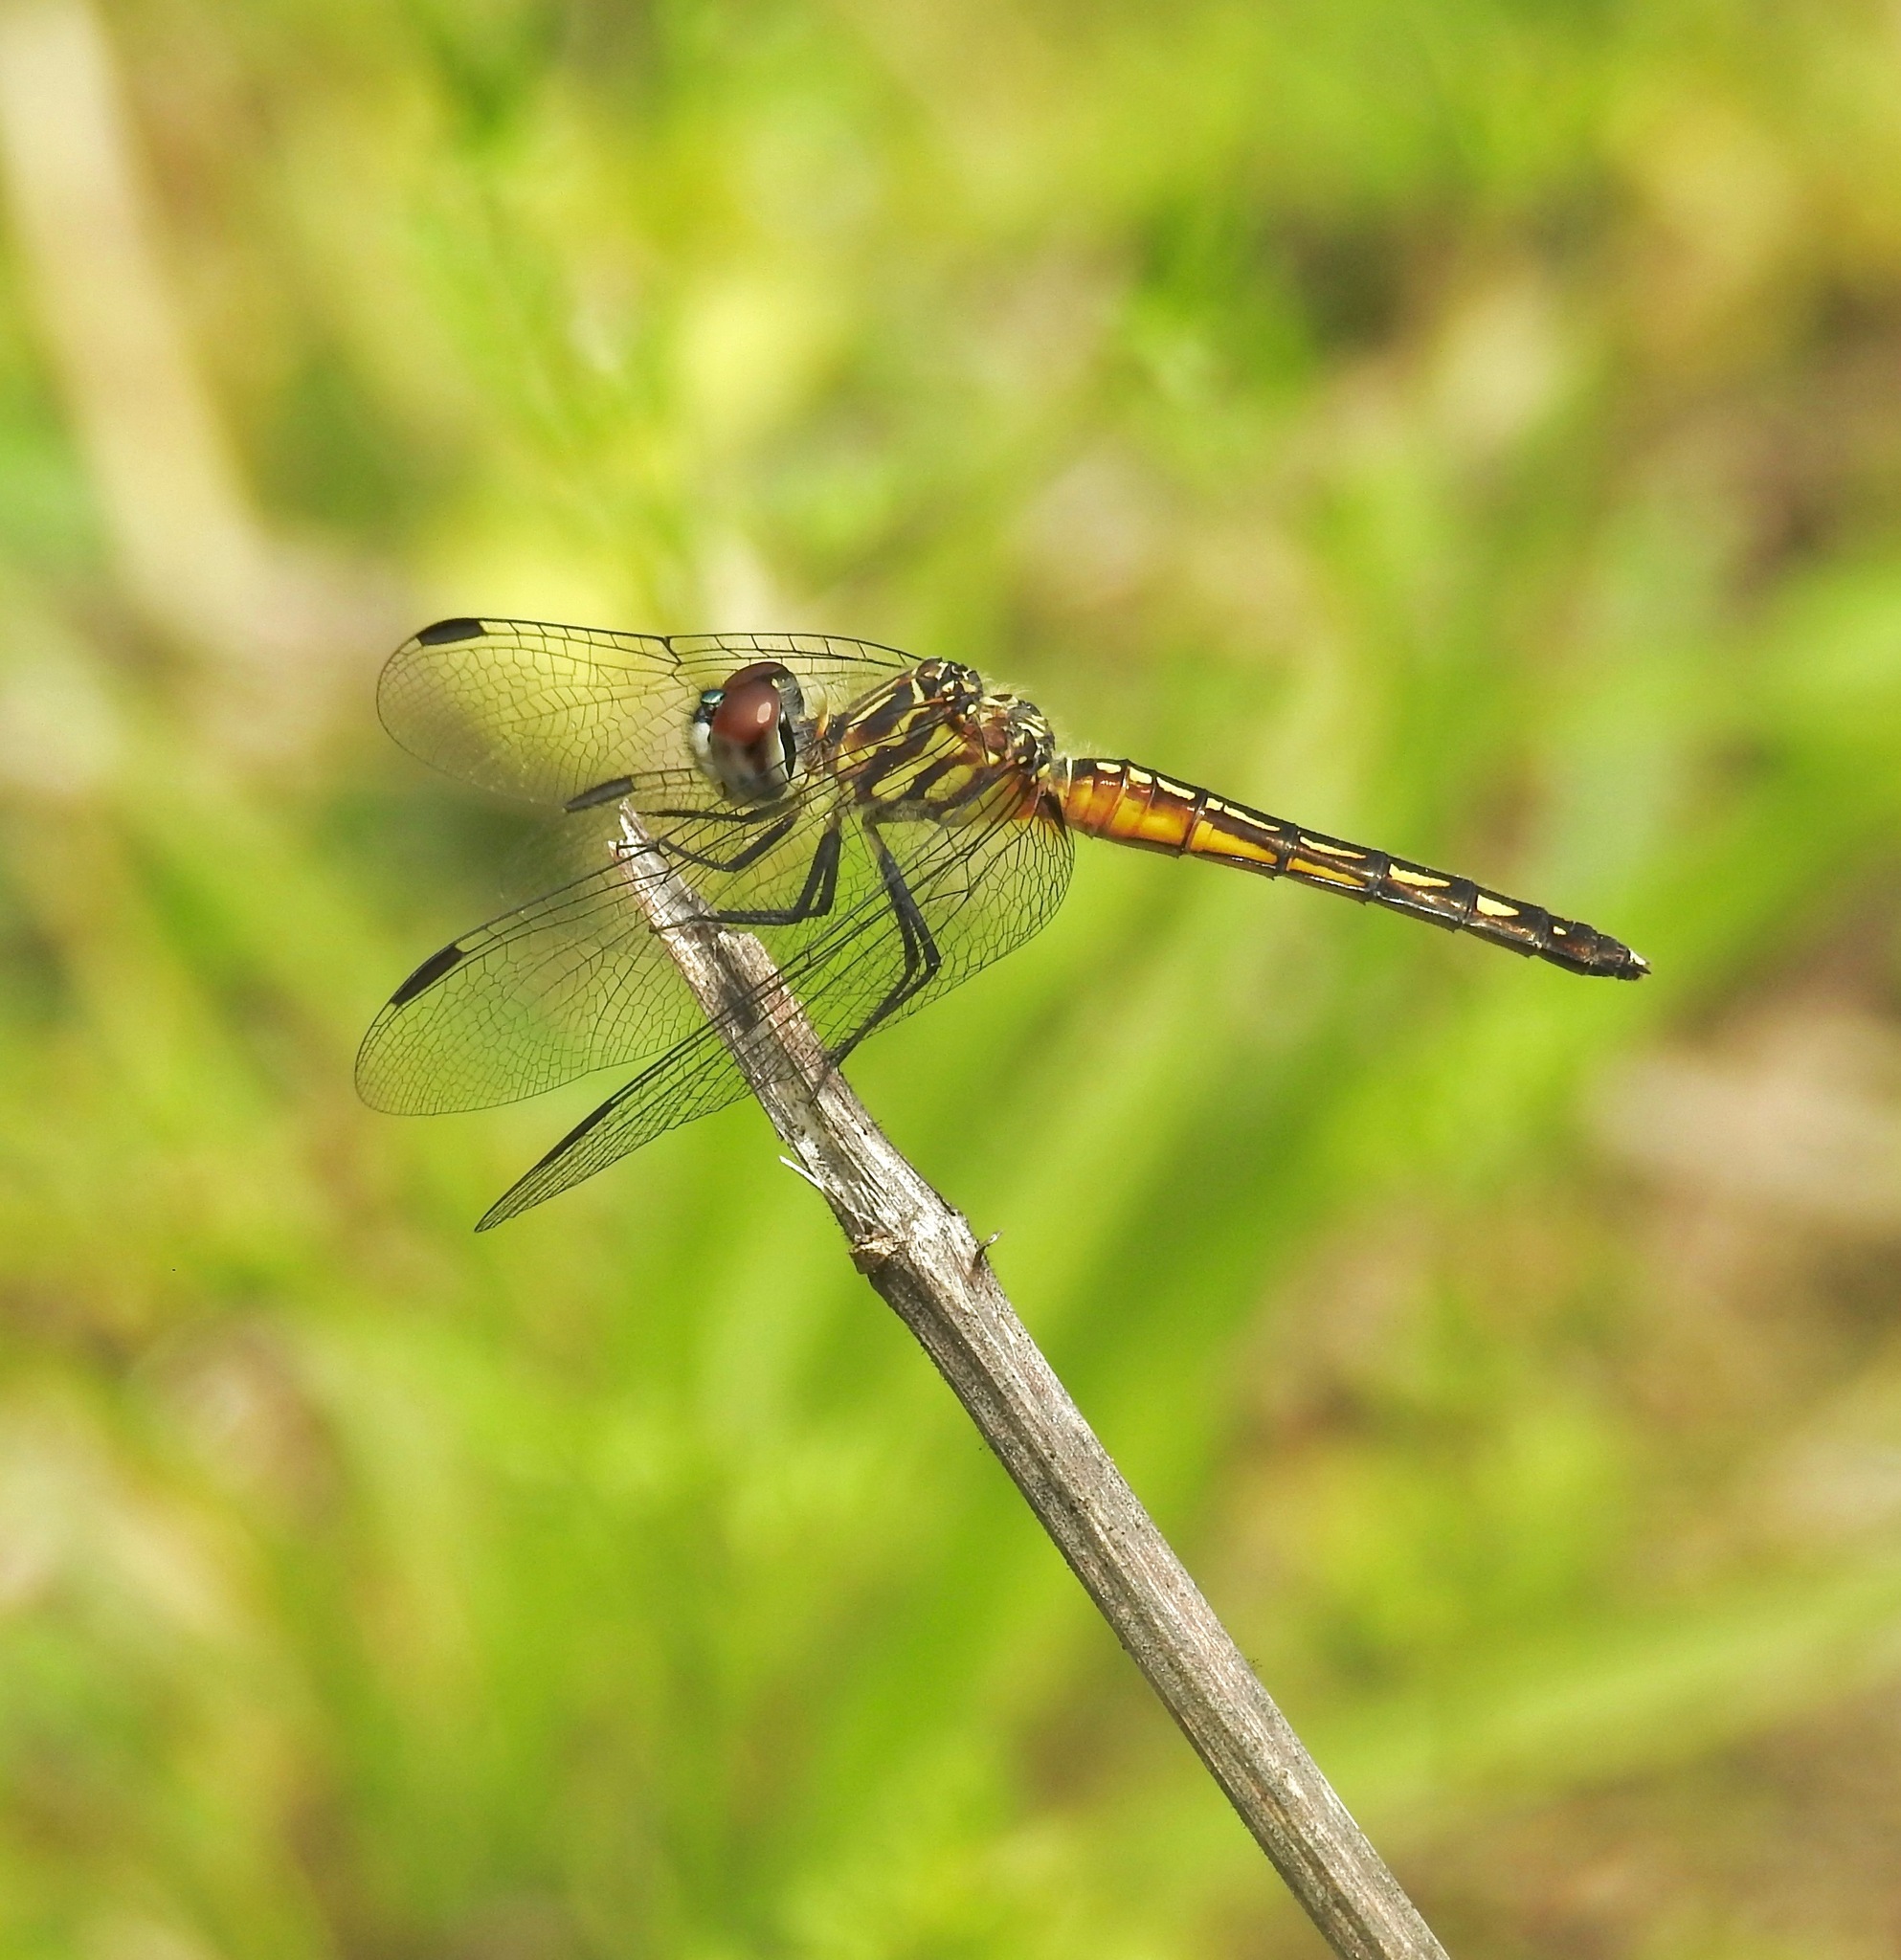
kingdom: Animalia
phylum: Arthropoda
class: Insecta
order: Odonata
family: Libellulidae
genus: Pachydiplax
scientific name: Pachydiplax longipennis
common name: Blue dasher
